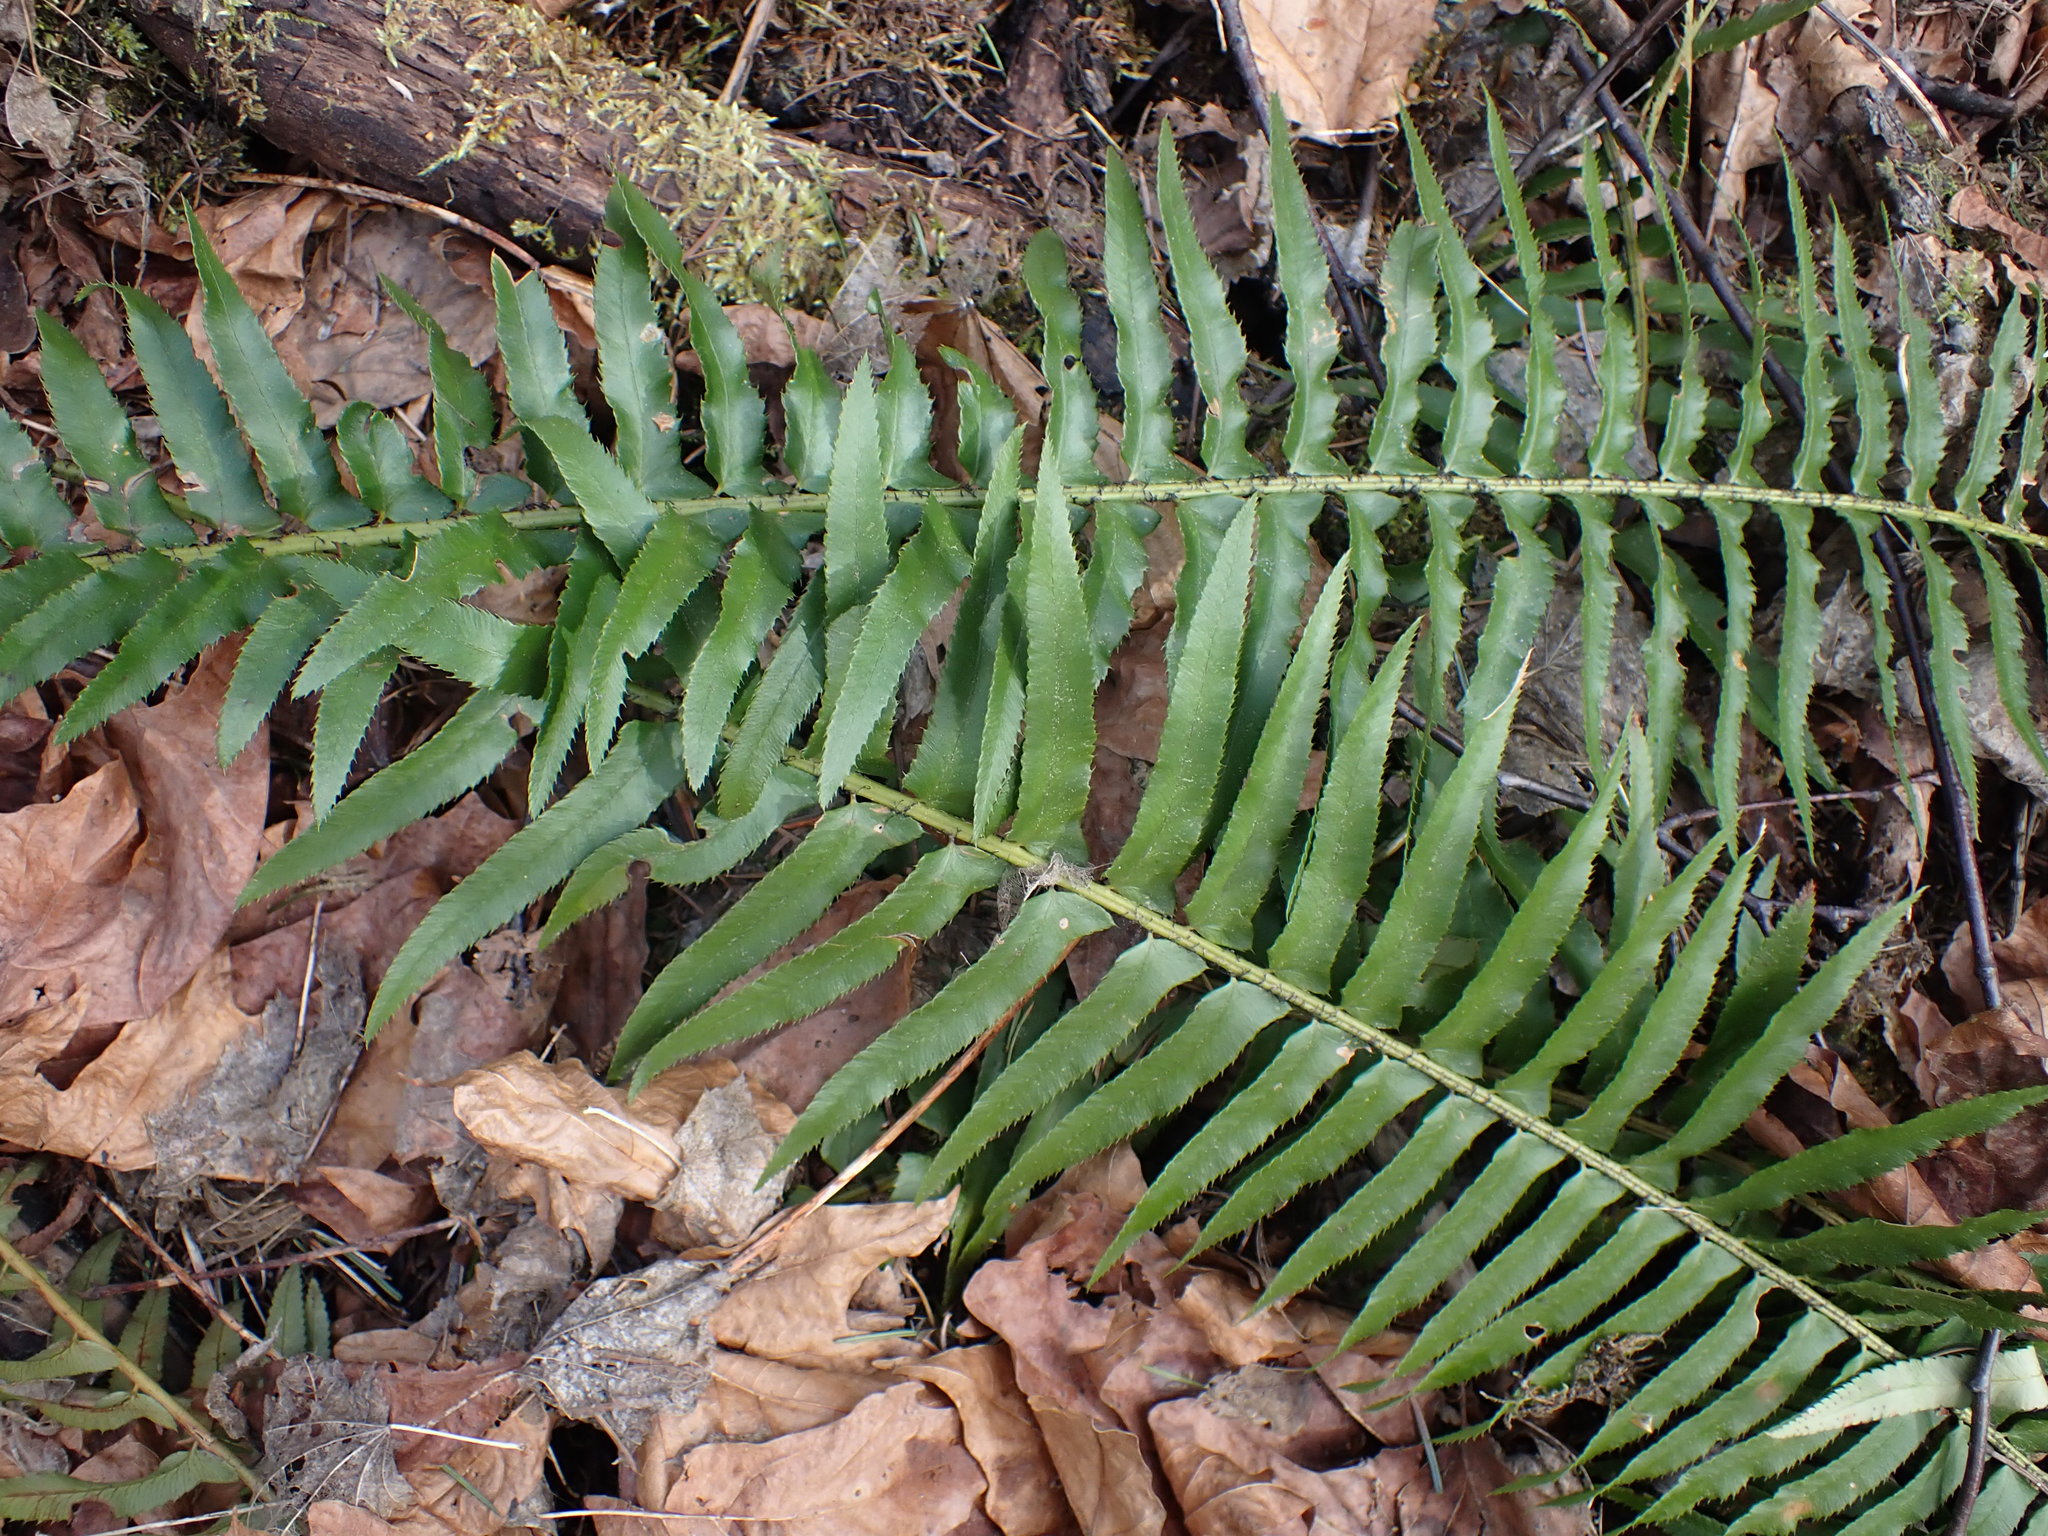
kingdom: Plantae
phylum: Tracheophyta
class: Polypodiopsida
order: Polypodiales
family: Dryopteridaceae
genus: Polystichum
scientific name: Polystichum munitum
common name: Western sword-fern
